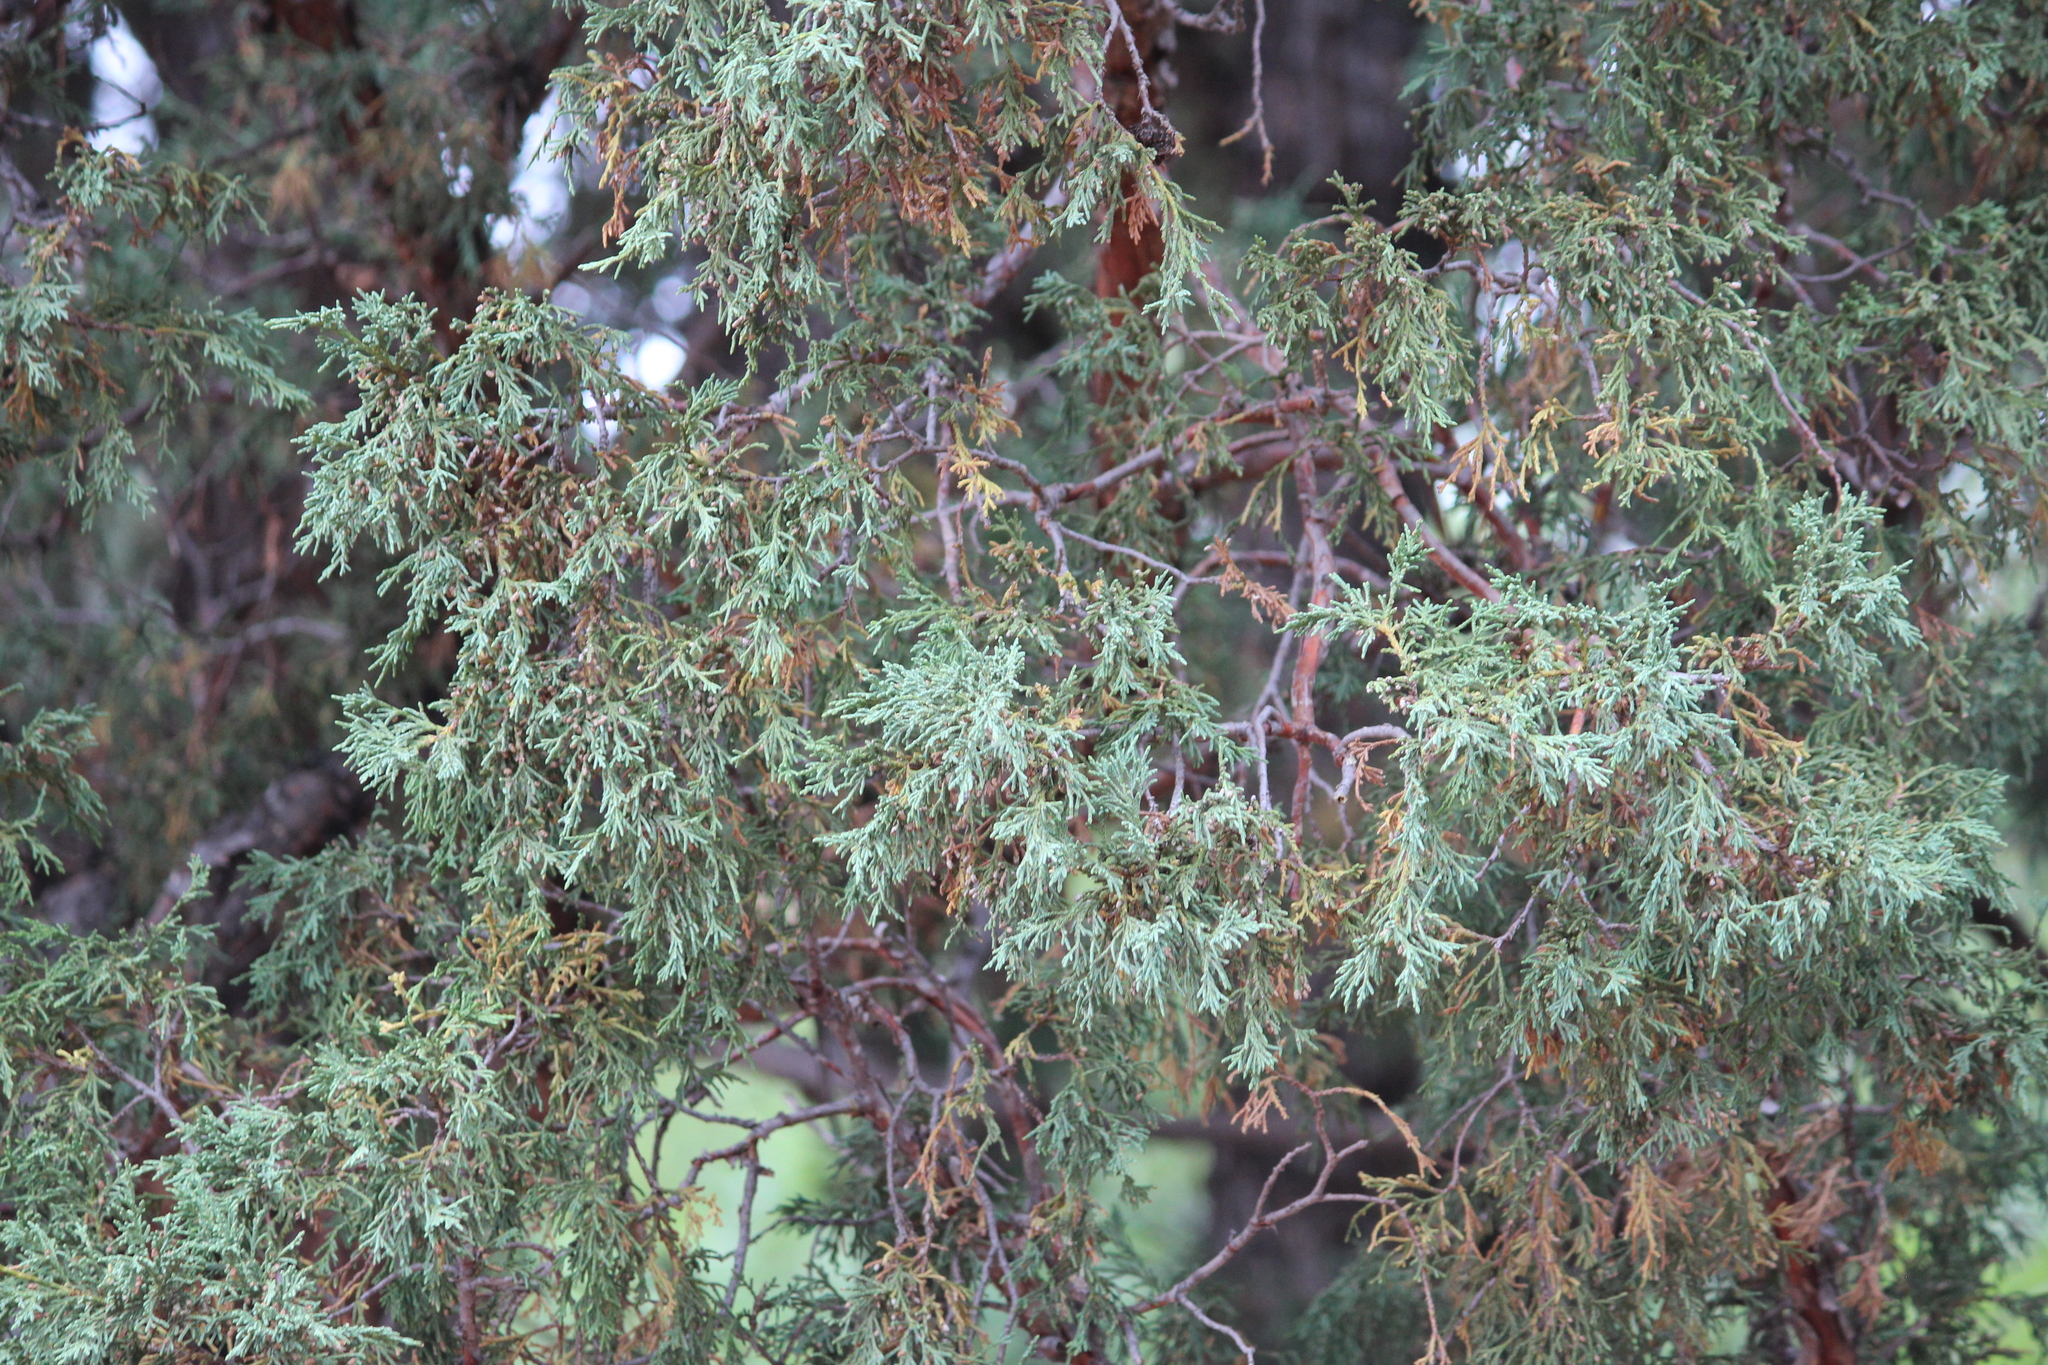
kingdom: Plantae
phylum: Tracheophyta
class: Pinopsida
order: Pinales
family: Cupressaceae
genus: Juniperus
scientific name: Juniperus scopulorum
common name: Rocky mountain juniper
